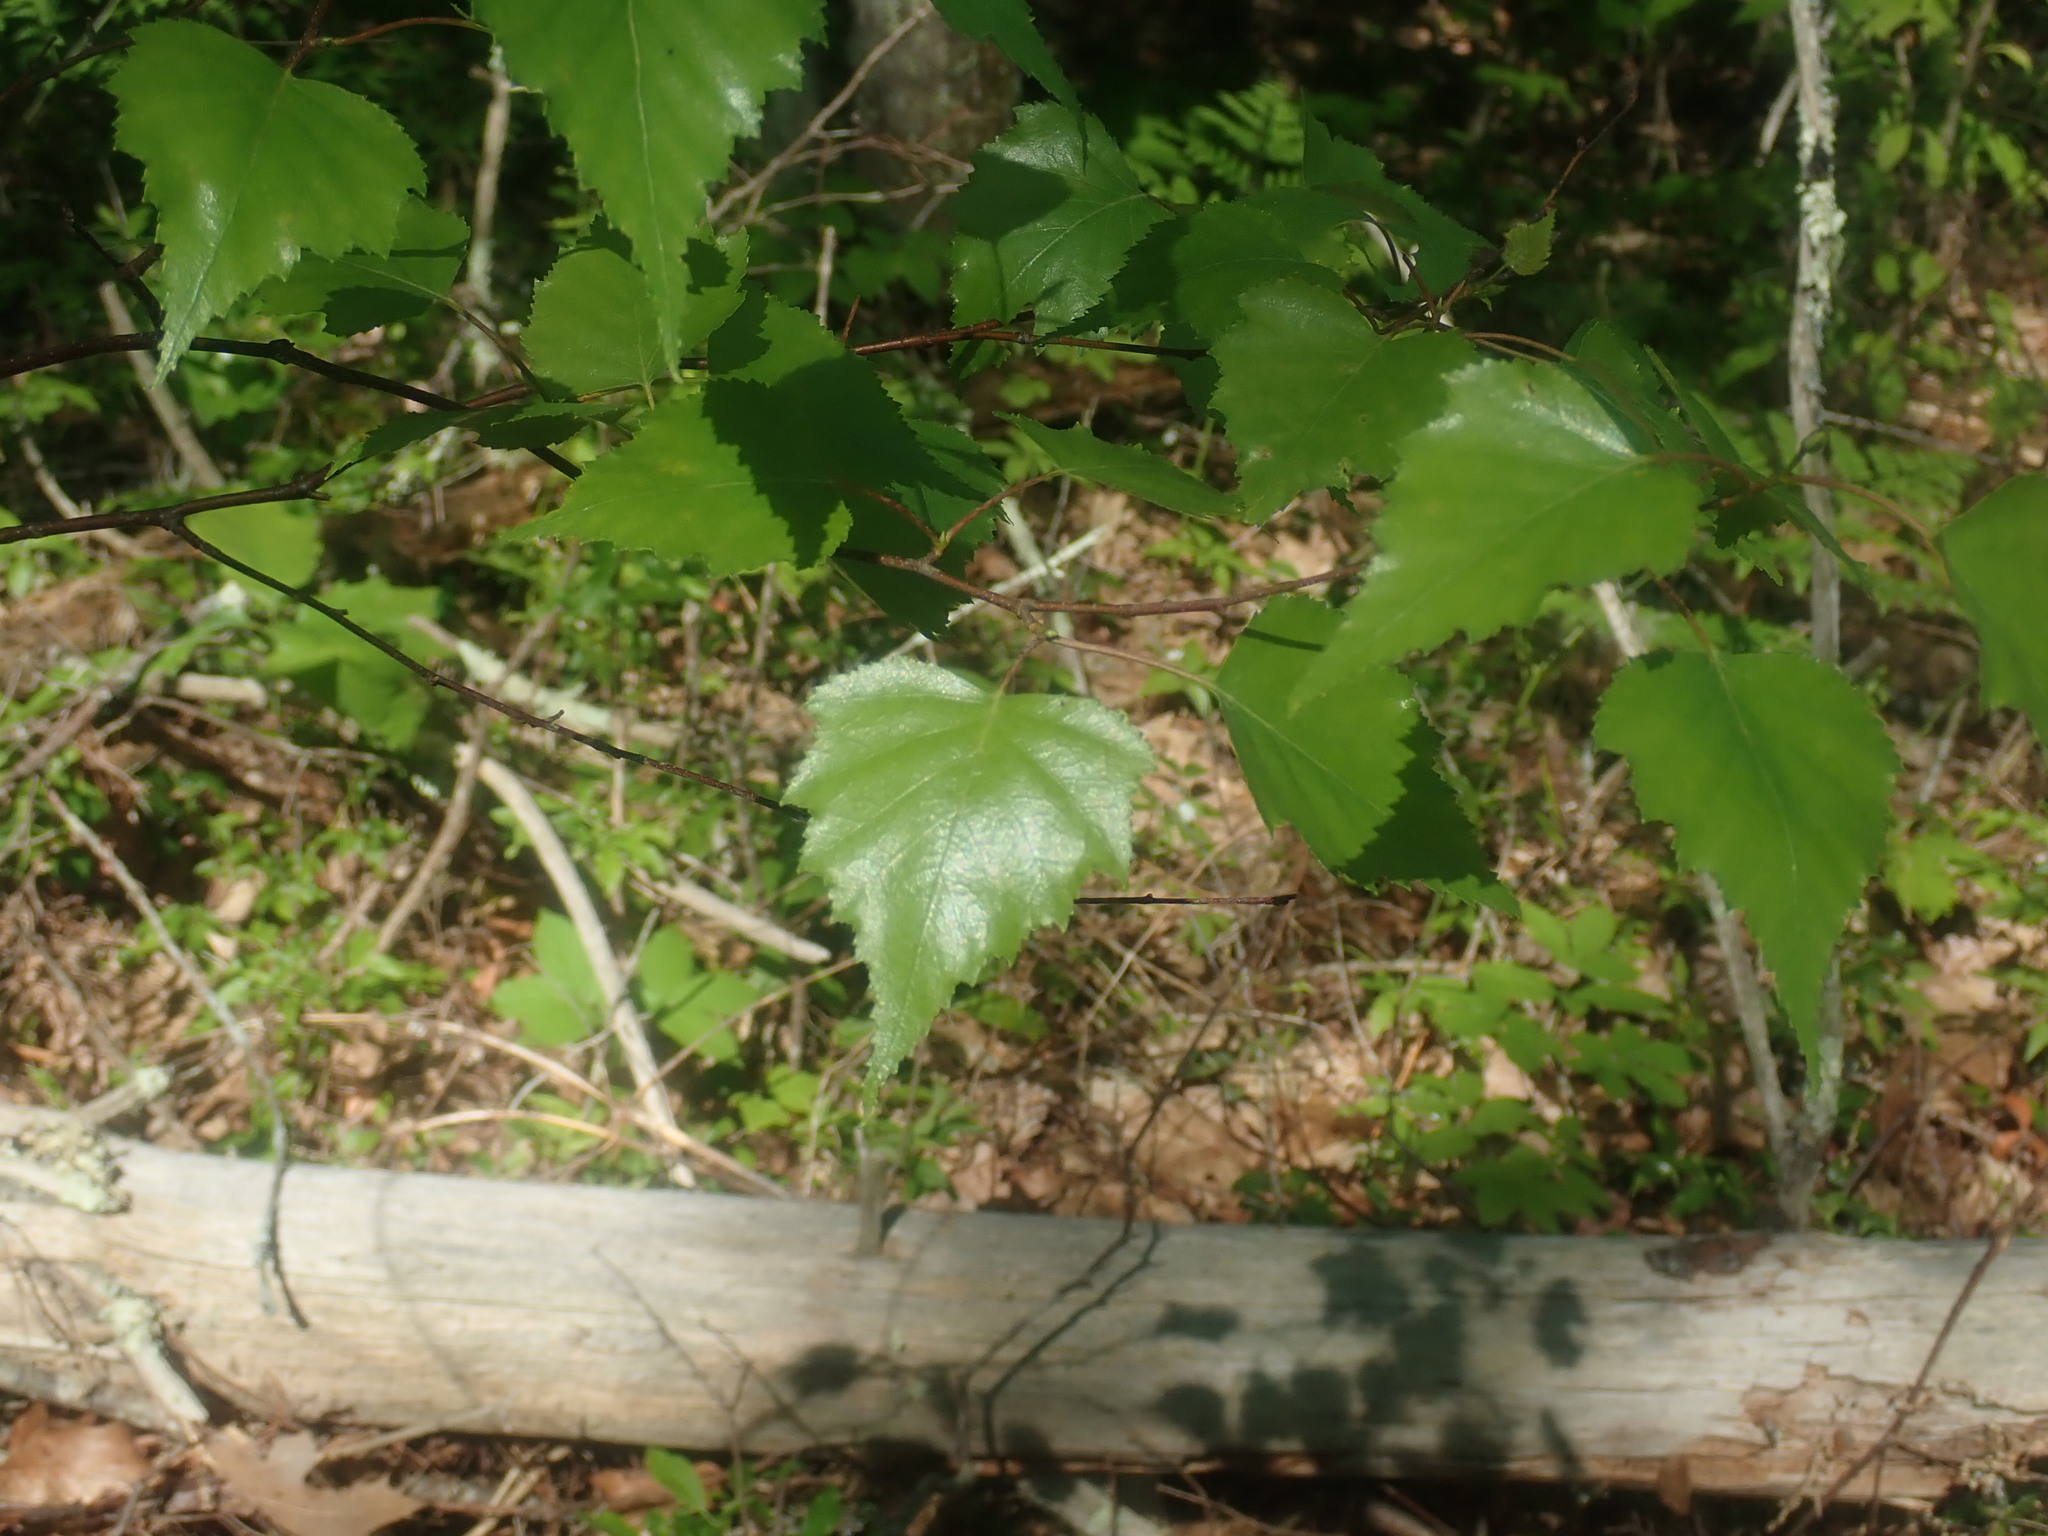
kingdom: Plantae
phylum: Tracheophyta
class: Magnoliopsida
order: Fagales
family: Betulaceae
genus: Betula
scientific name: Betula populifolia
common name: Fire birch
